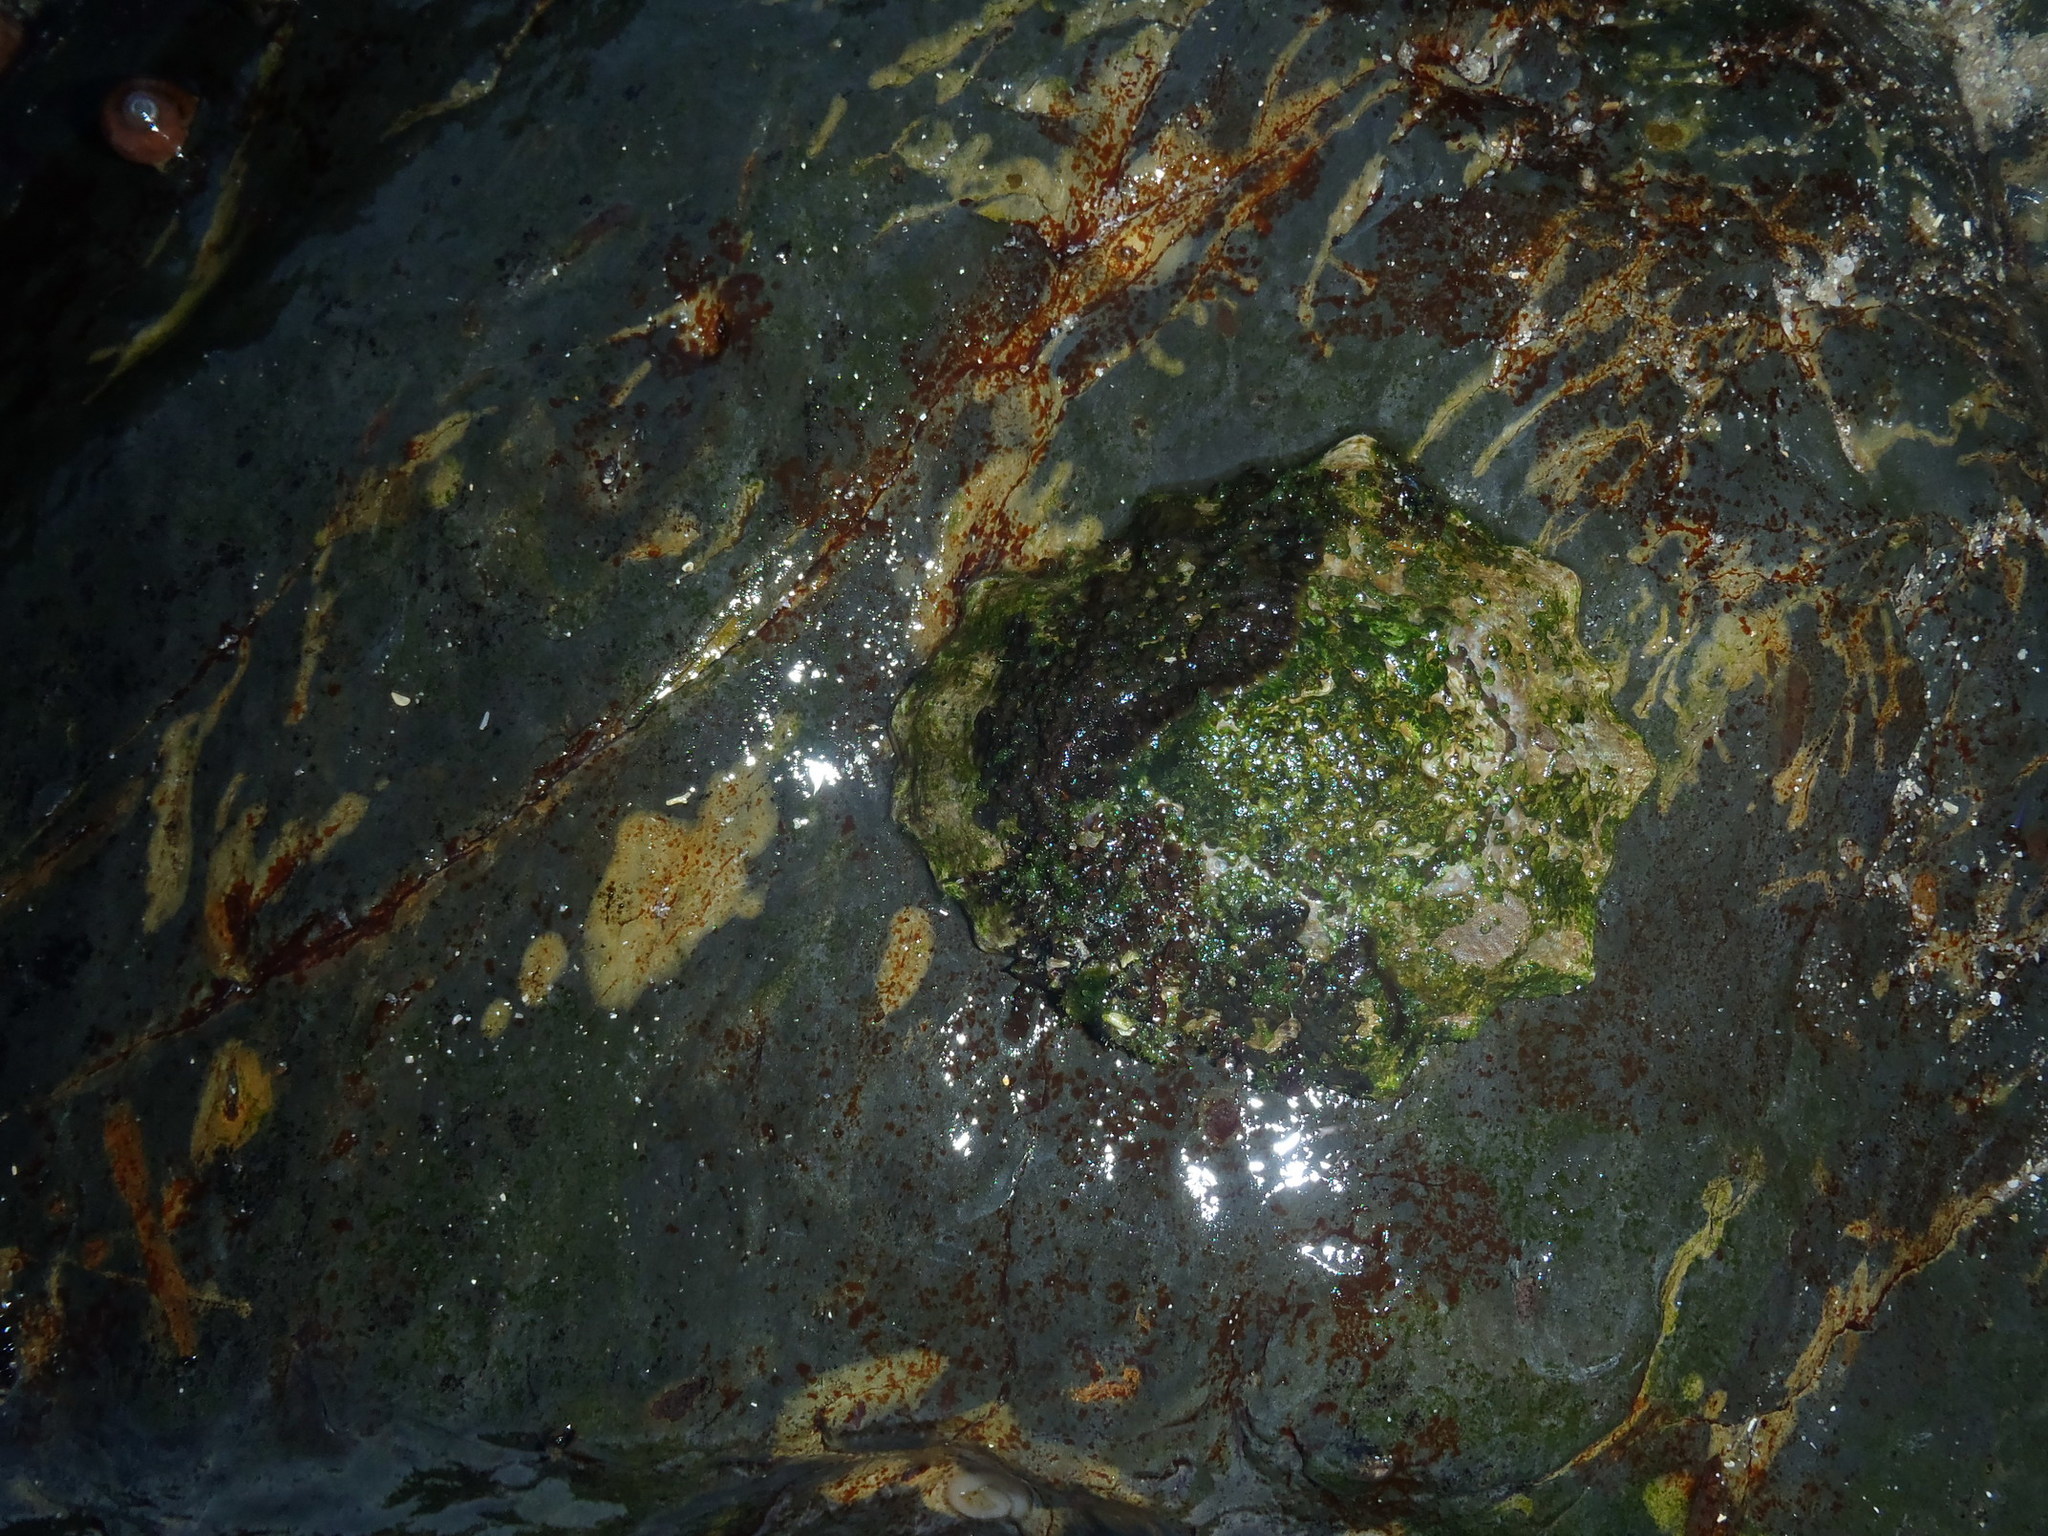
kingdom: Animalia
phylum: Mollusca
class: Gastropoda
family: Patellidae
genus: Scutellastra
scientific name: Scutellastra tabularis
